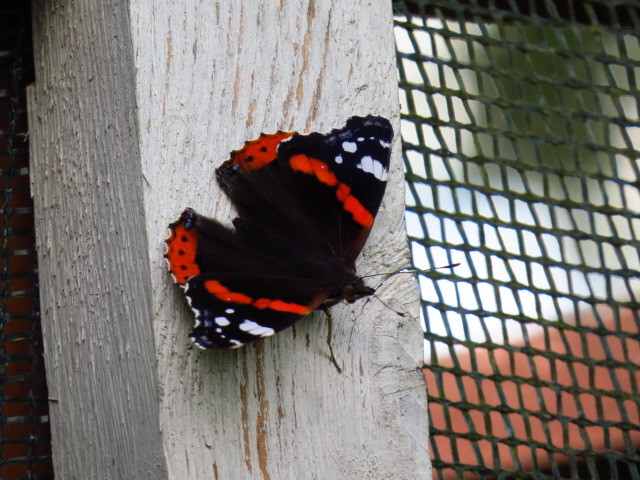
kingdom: Animalia
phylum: Arthropoda
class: Insecta
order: Lepidoptera
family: Nymphalidae
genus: Vanessa
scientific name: Vanessa atalanta
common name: Red admiral
